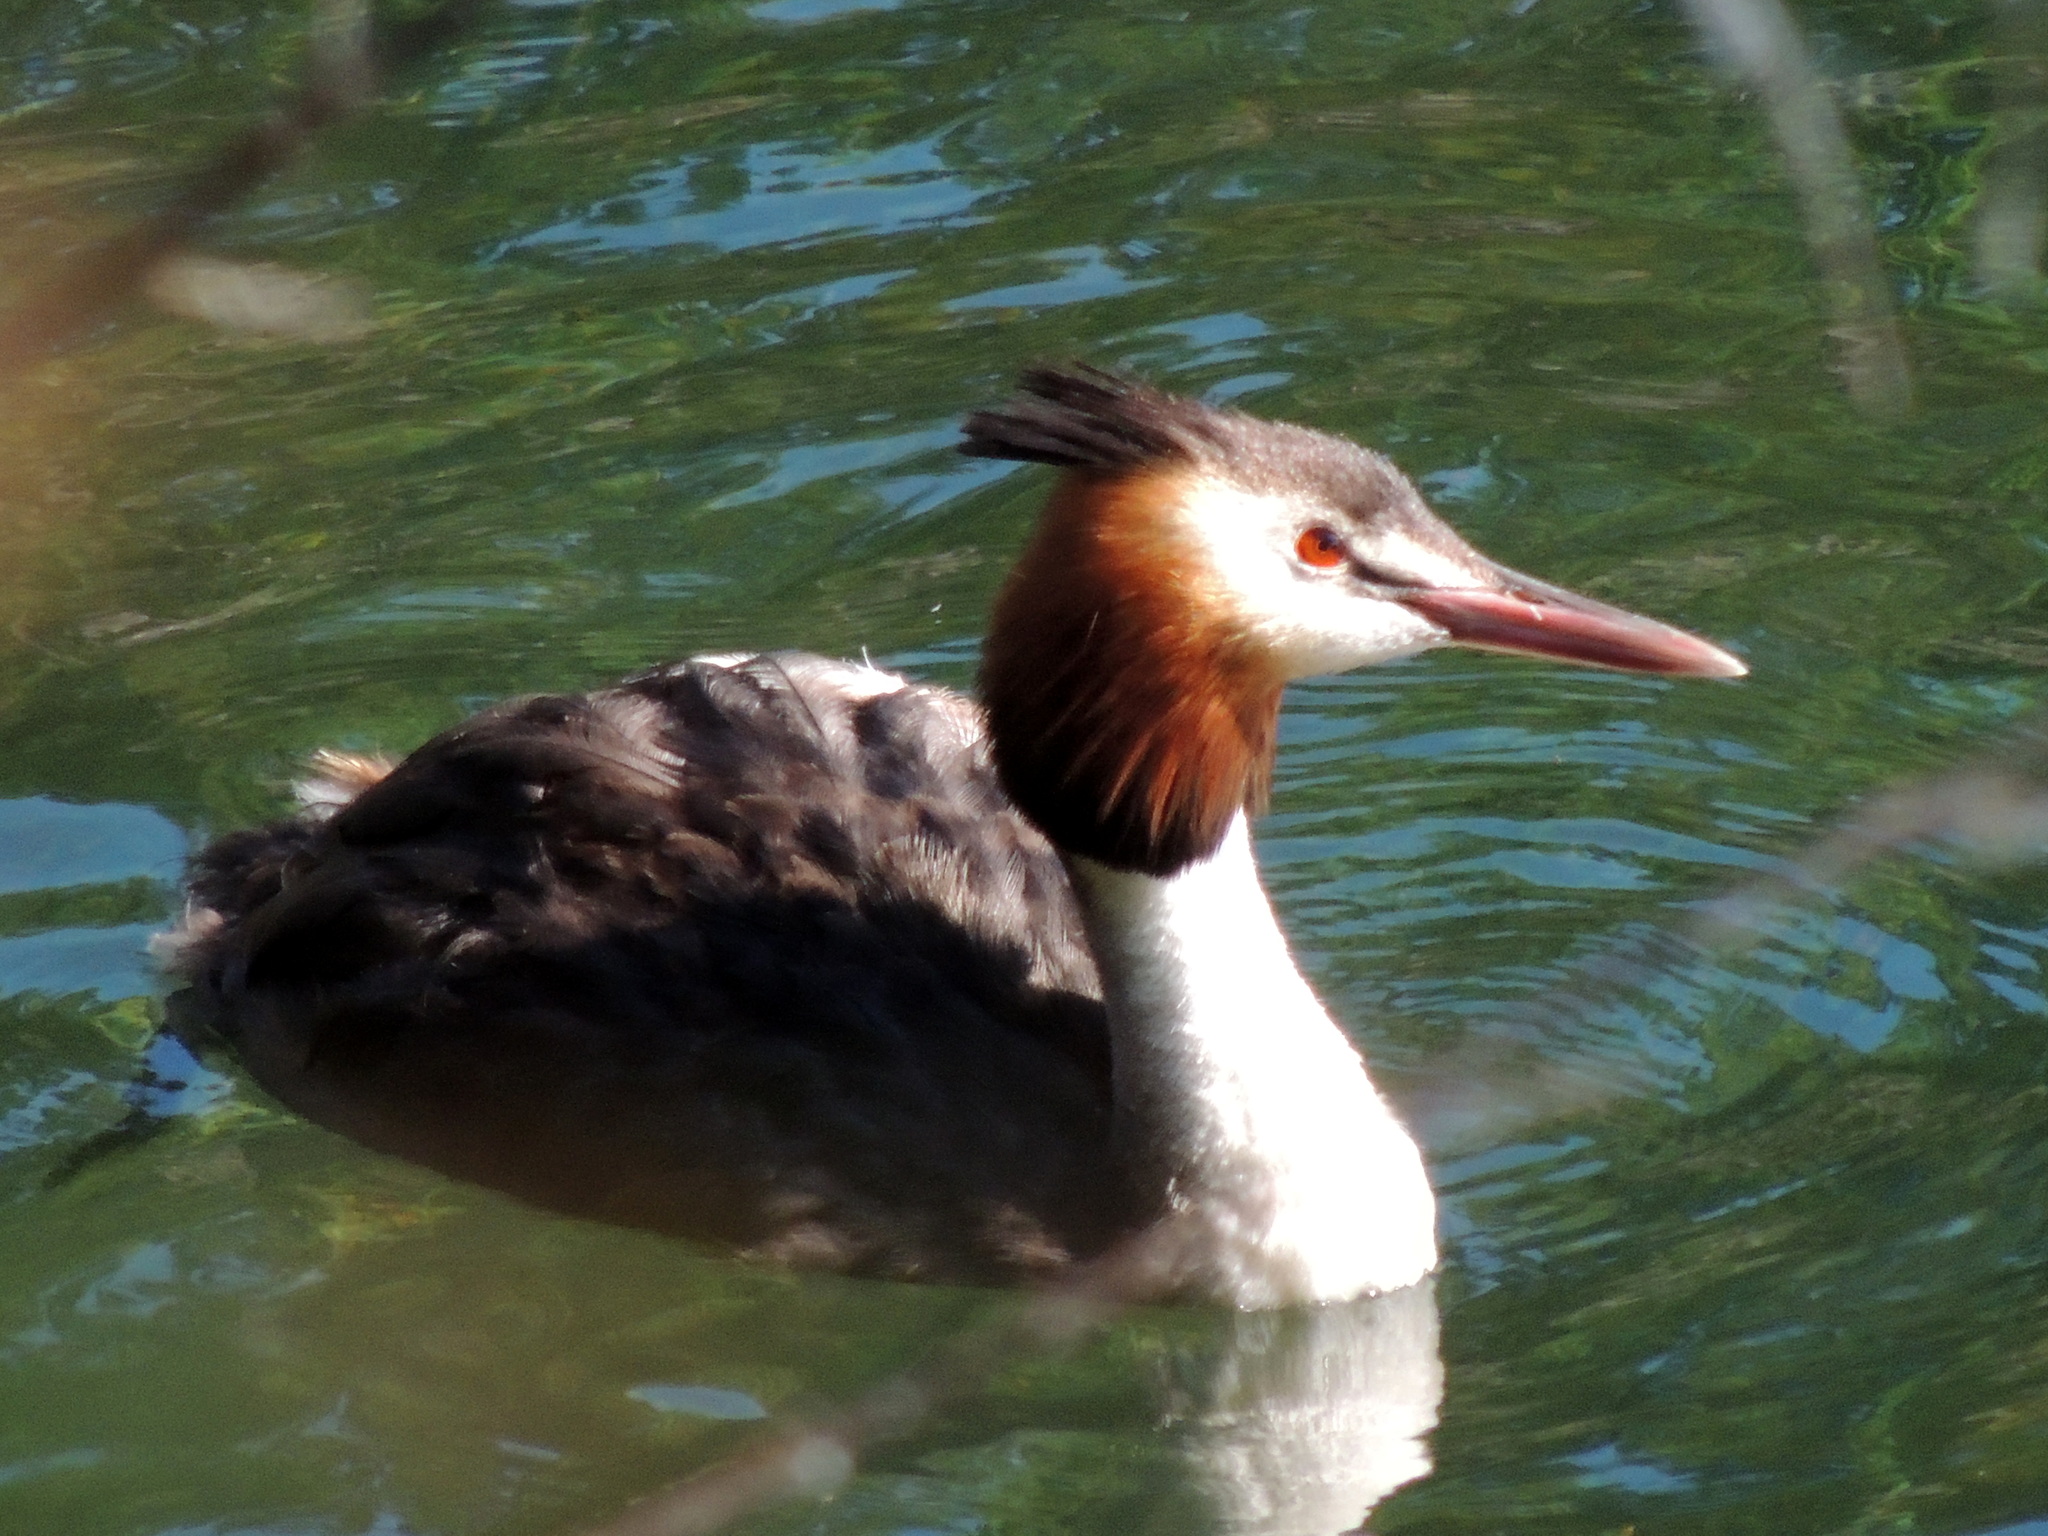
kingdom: Animalia
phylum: Chordata
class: Aves
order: Podicipediformes
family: Podicipedidae
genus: Podiceps
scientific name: Podiceps cristatus
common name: Great crested grebe
